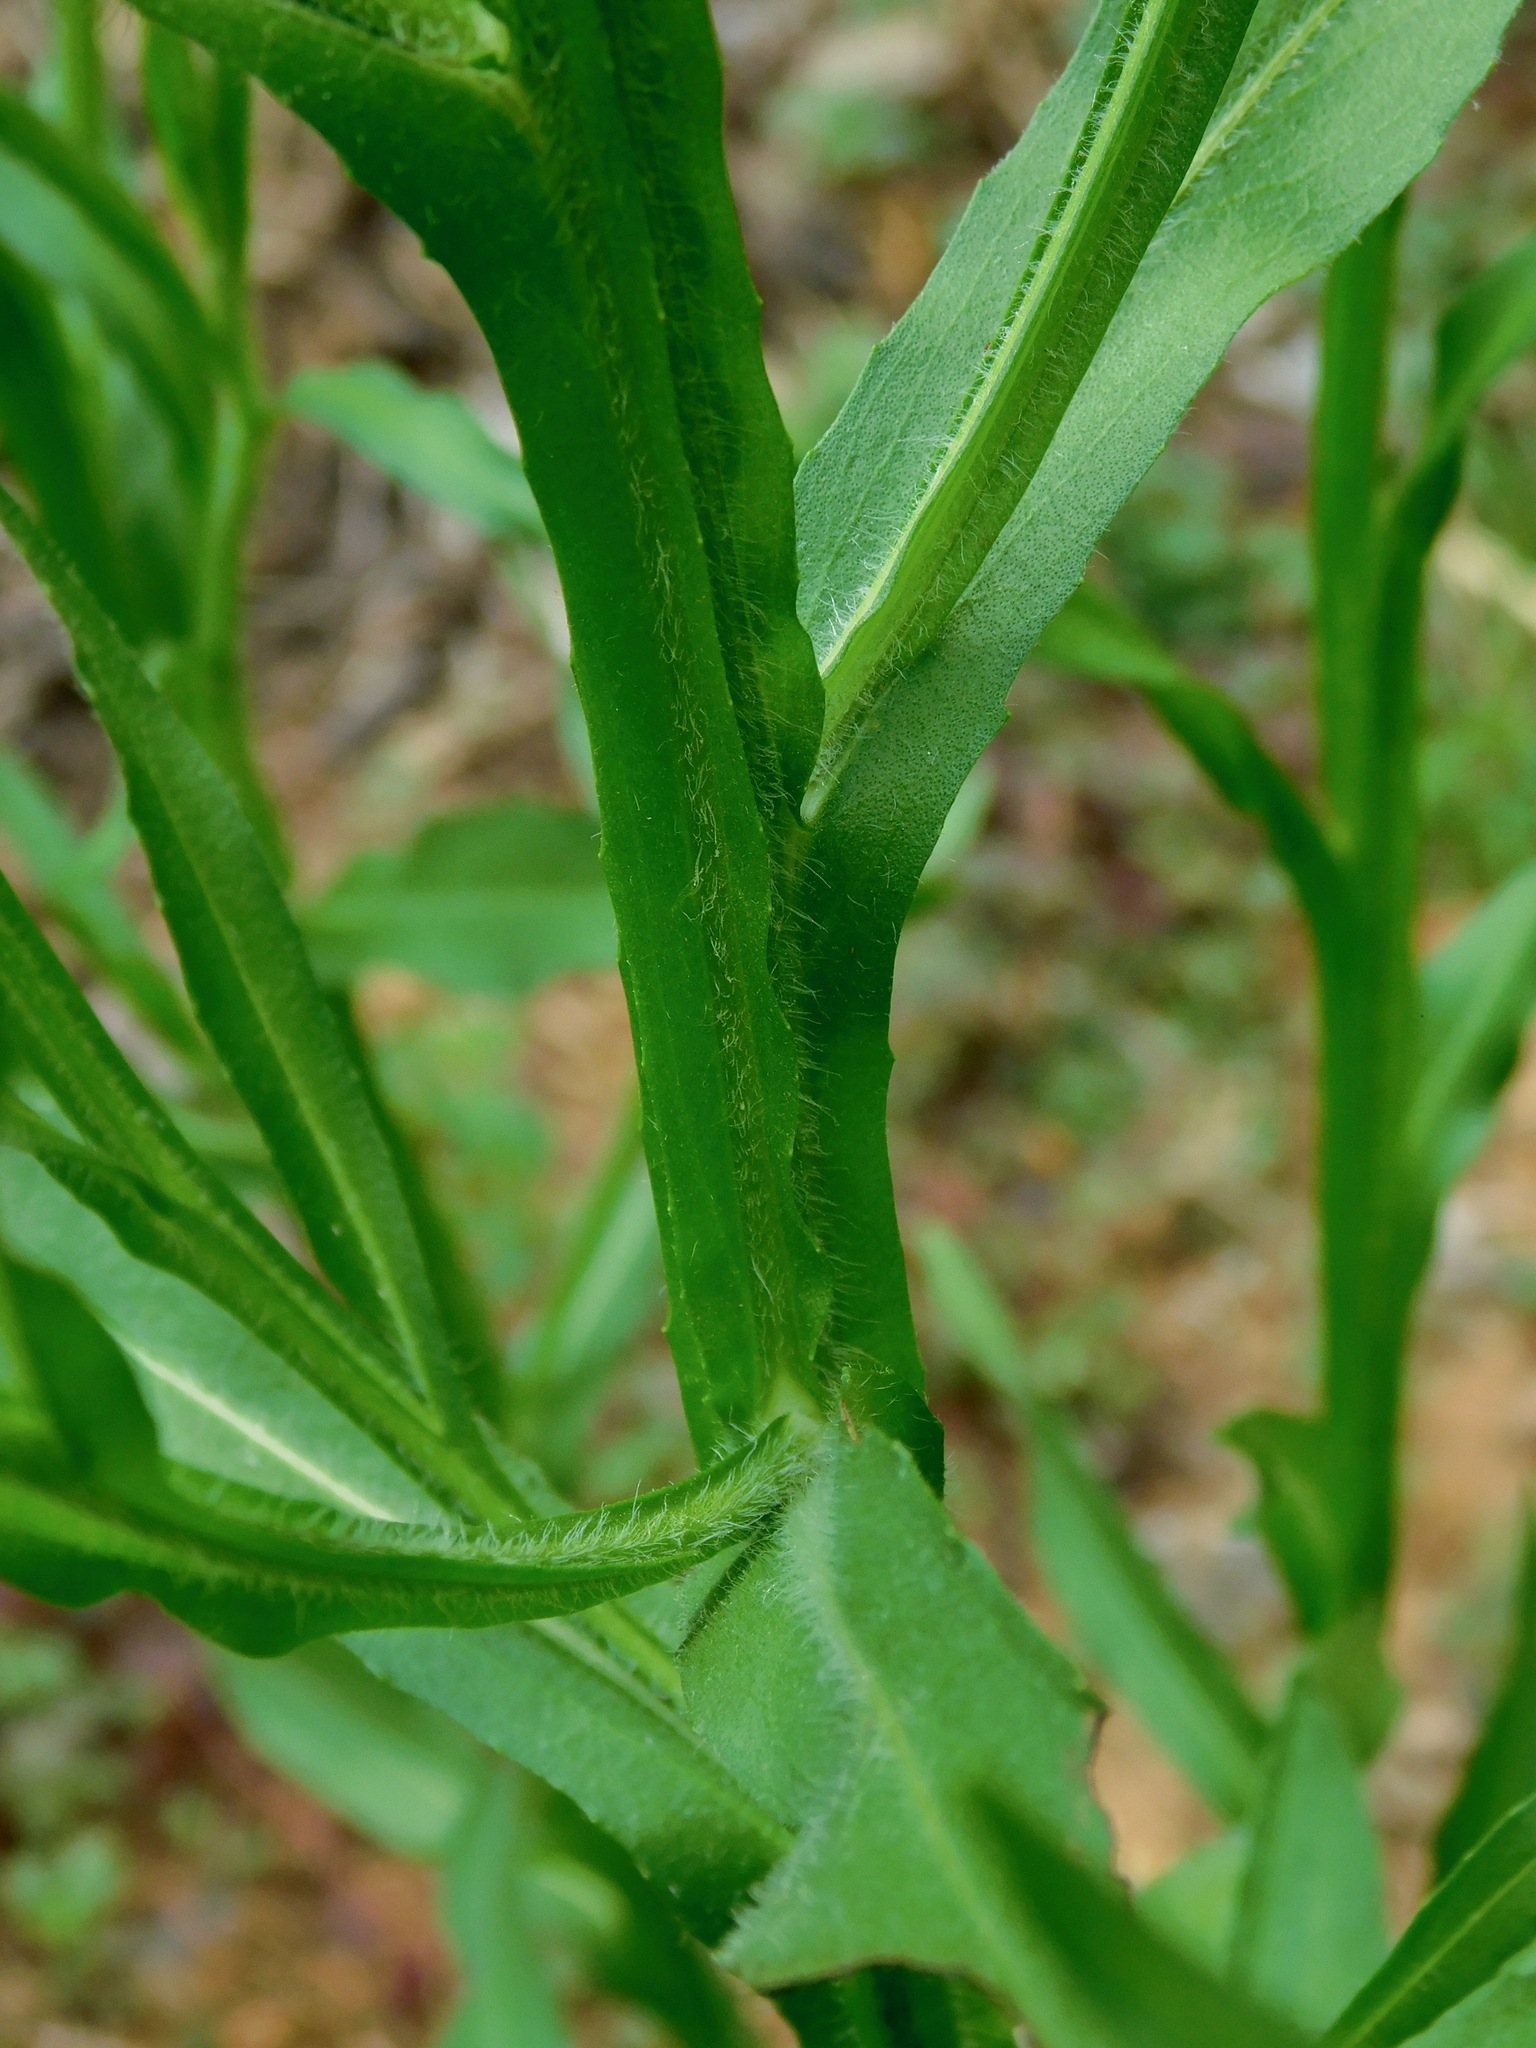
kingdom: Plantae
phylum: Tracheophyta
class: Magnoliopsida
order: Asterales
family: Asteraceae
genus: Helenium
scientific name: Helenium flexuosum
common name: Naked-flowered sneezeweed
